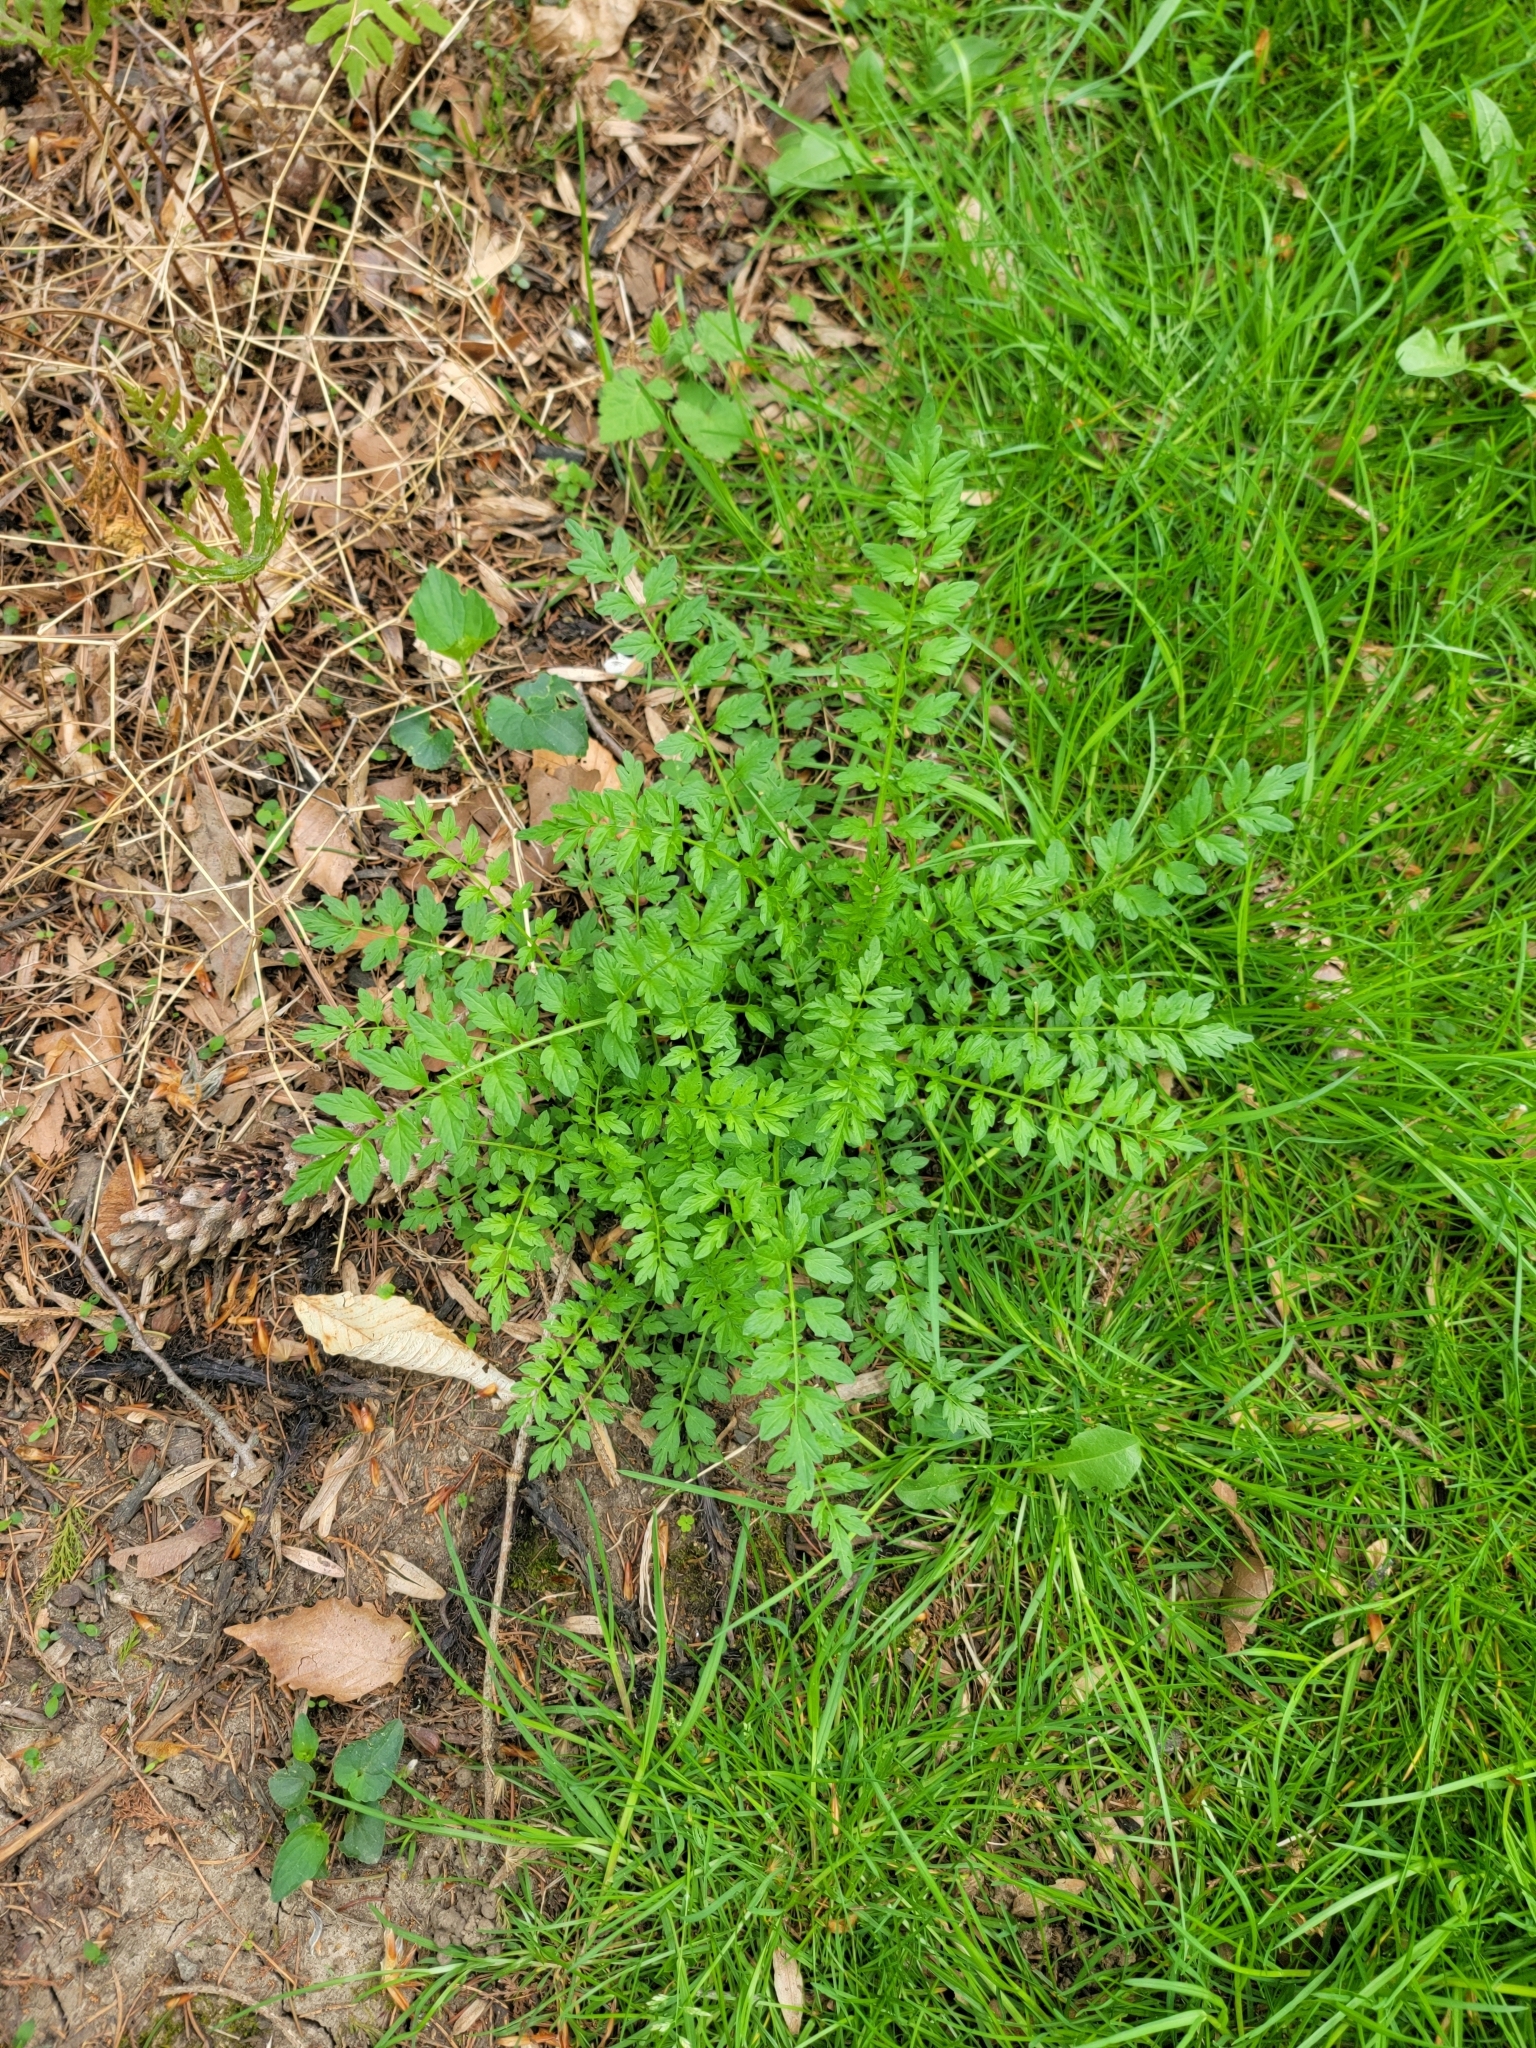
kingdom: Plantae
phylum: Tracheophyta
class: Magnoliopsida
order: Brassicales
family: Brassicaceae
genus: Cardamine
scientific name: Cardamine impatiens
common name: Narrow-leaved bitter-cress
